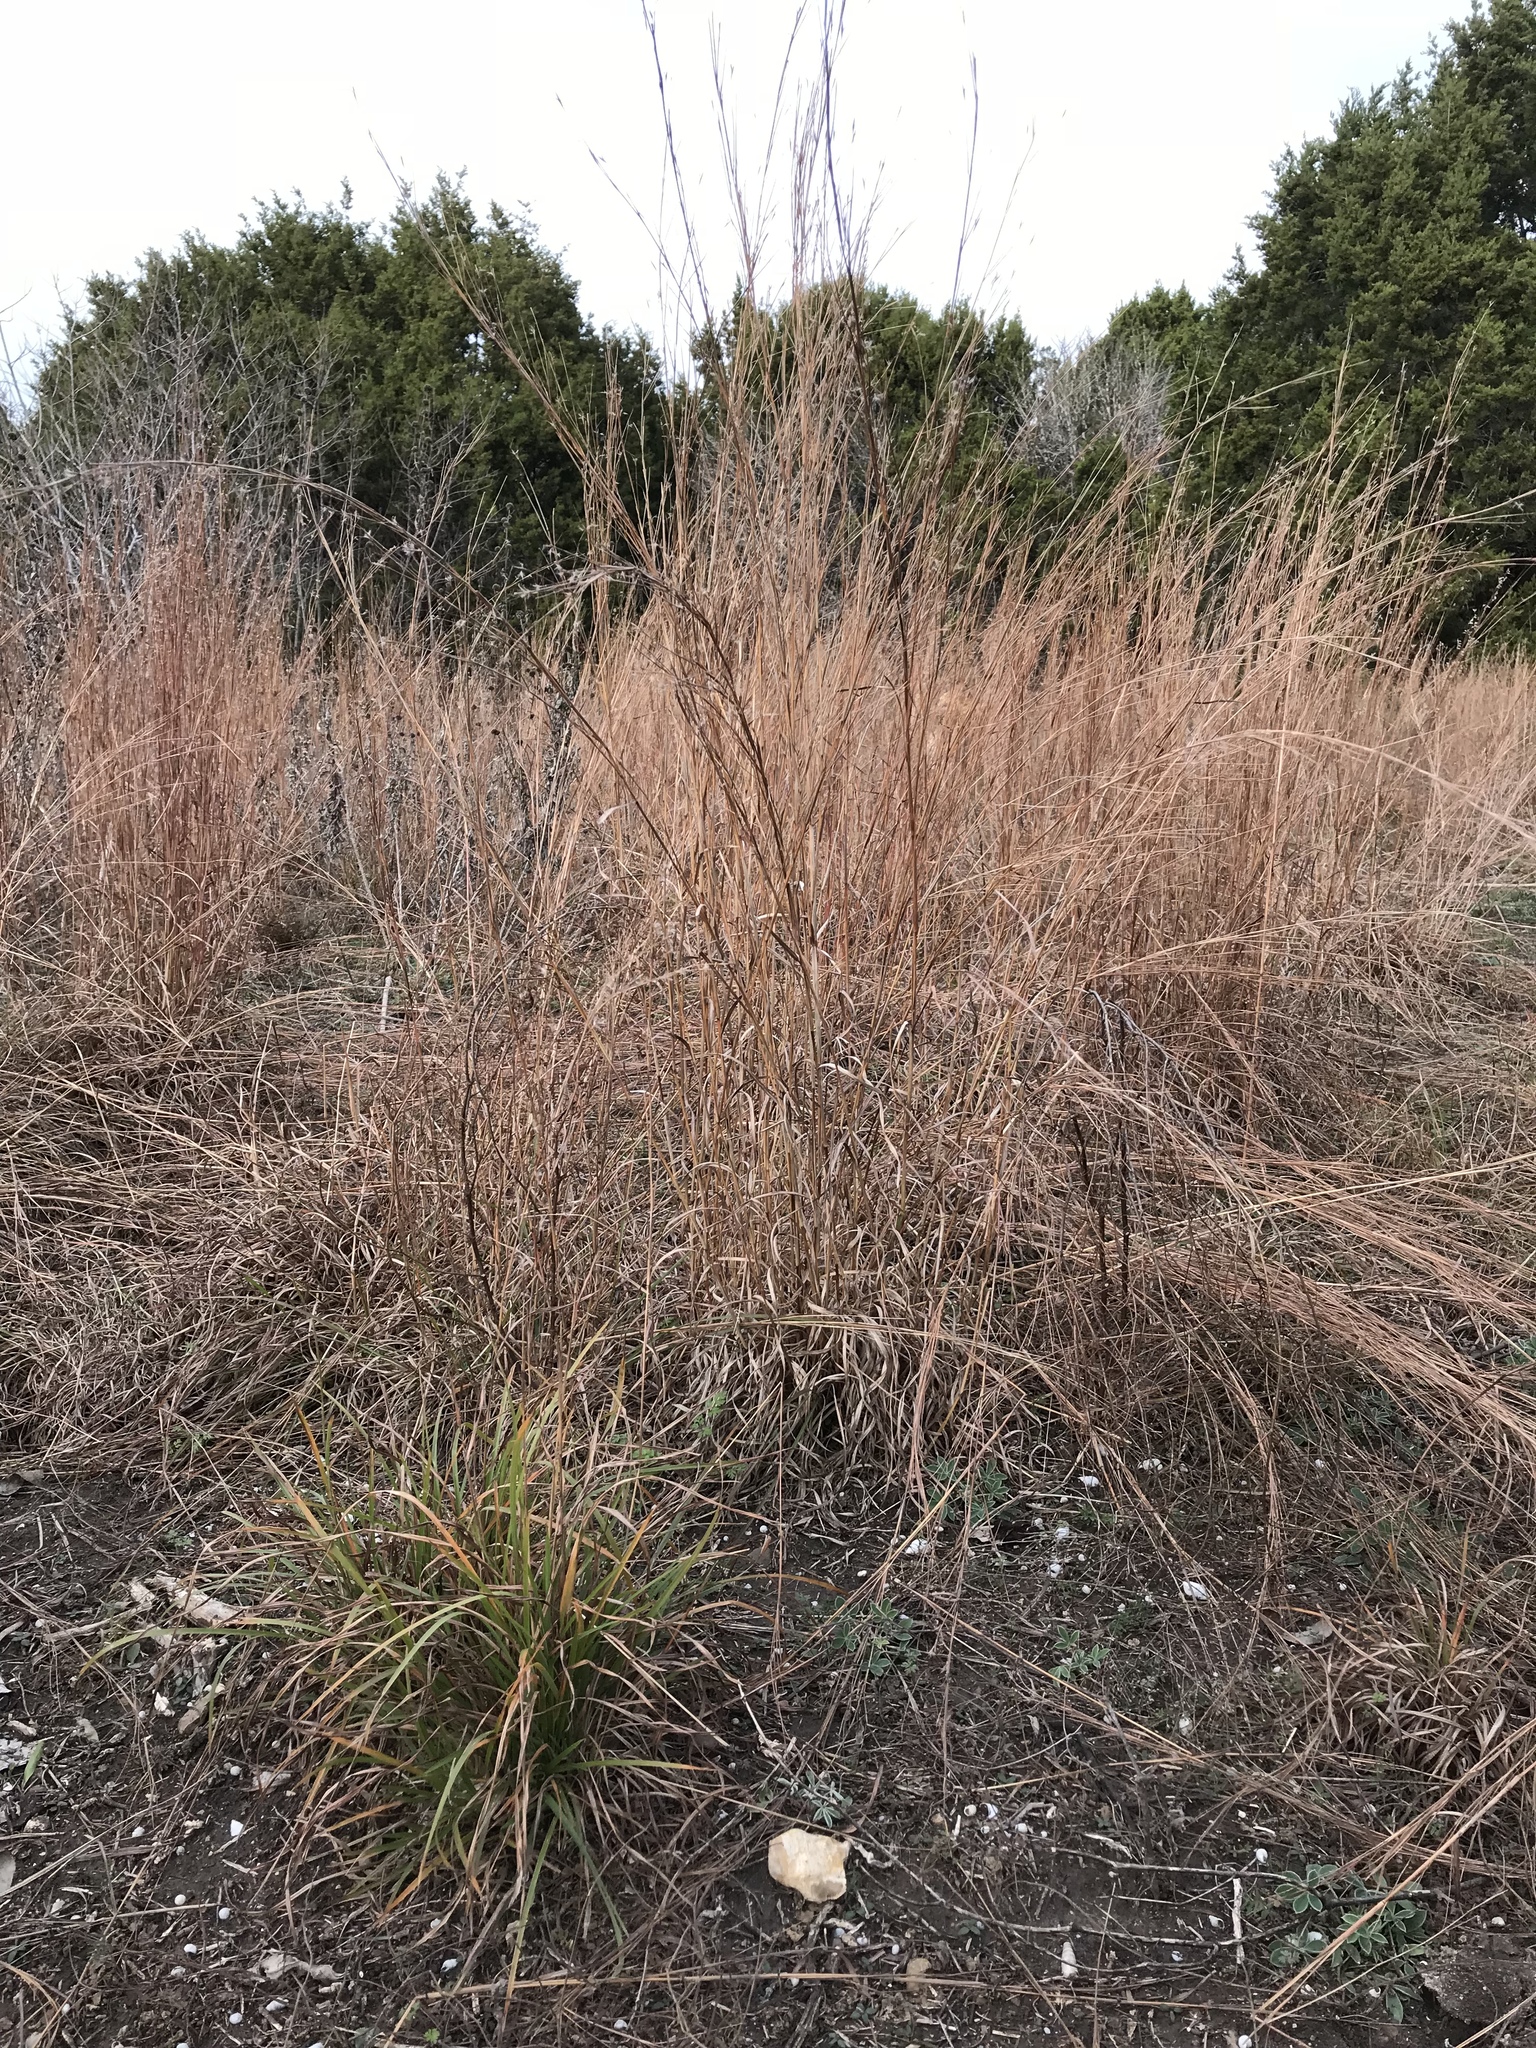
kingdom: Plantae
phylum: Tracheophyta
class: Liliopsida
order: Poales
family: Poaceae
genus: Schizachyrium
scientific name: Schizachyrium scoparium
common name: Little bluestem
